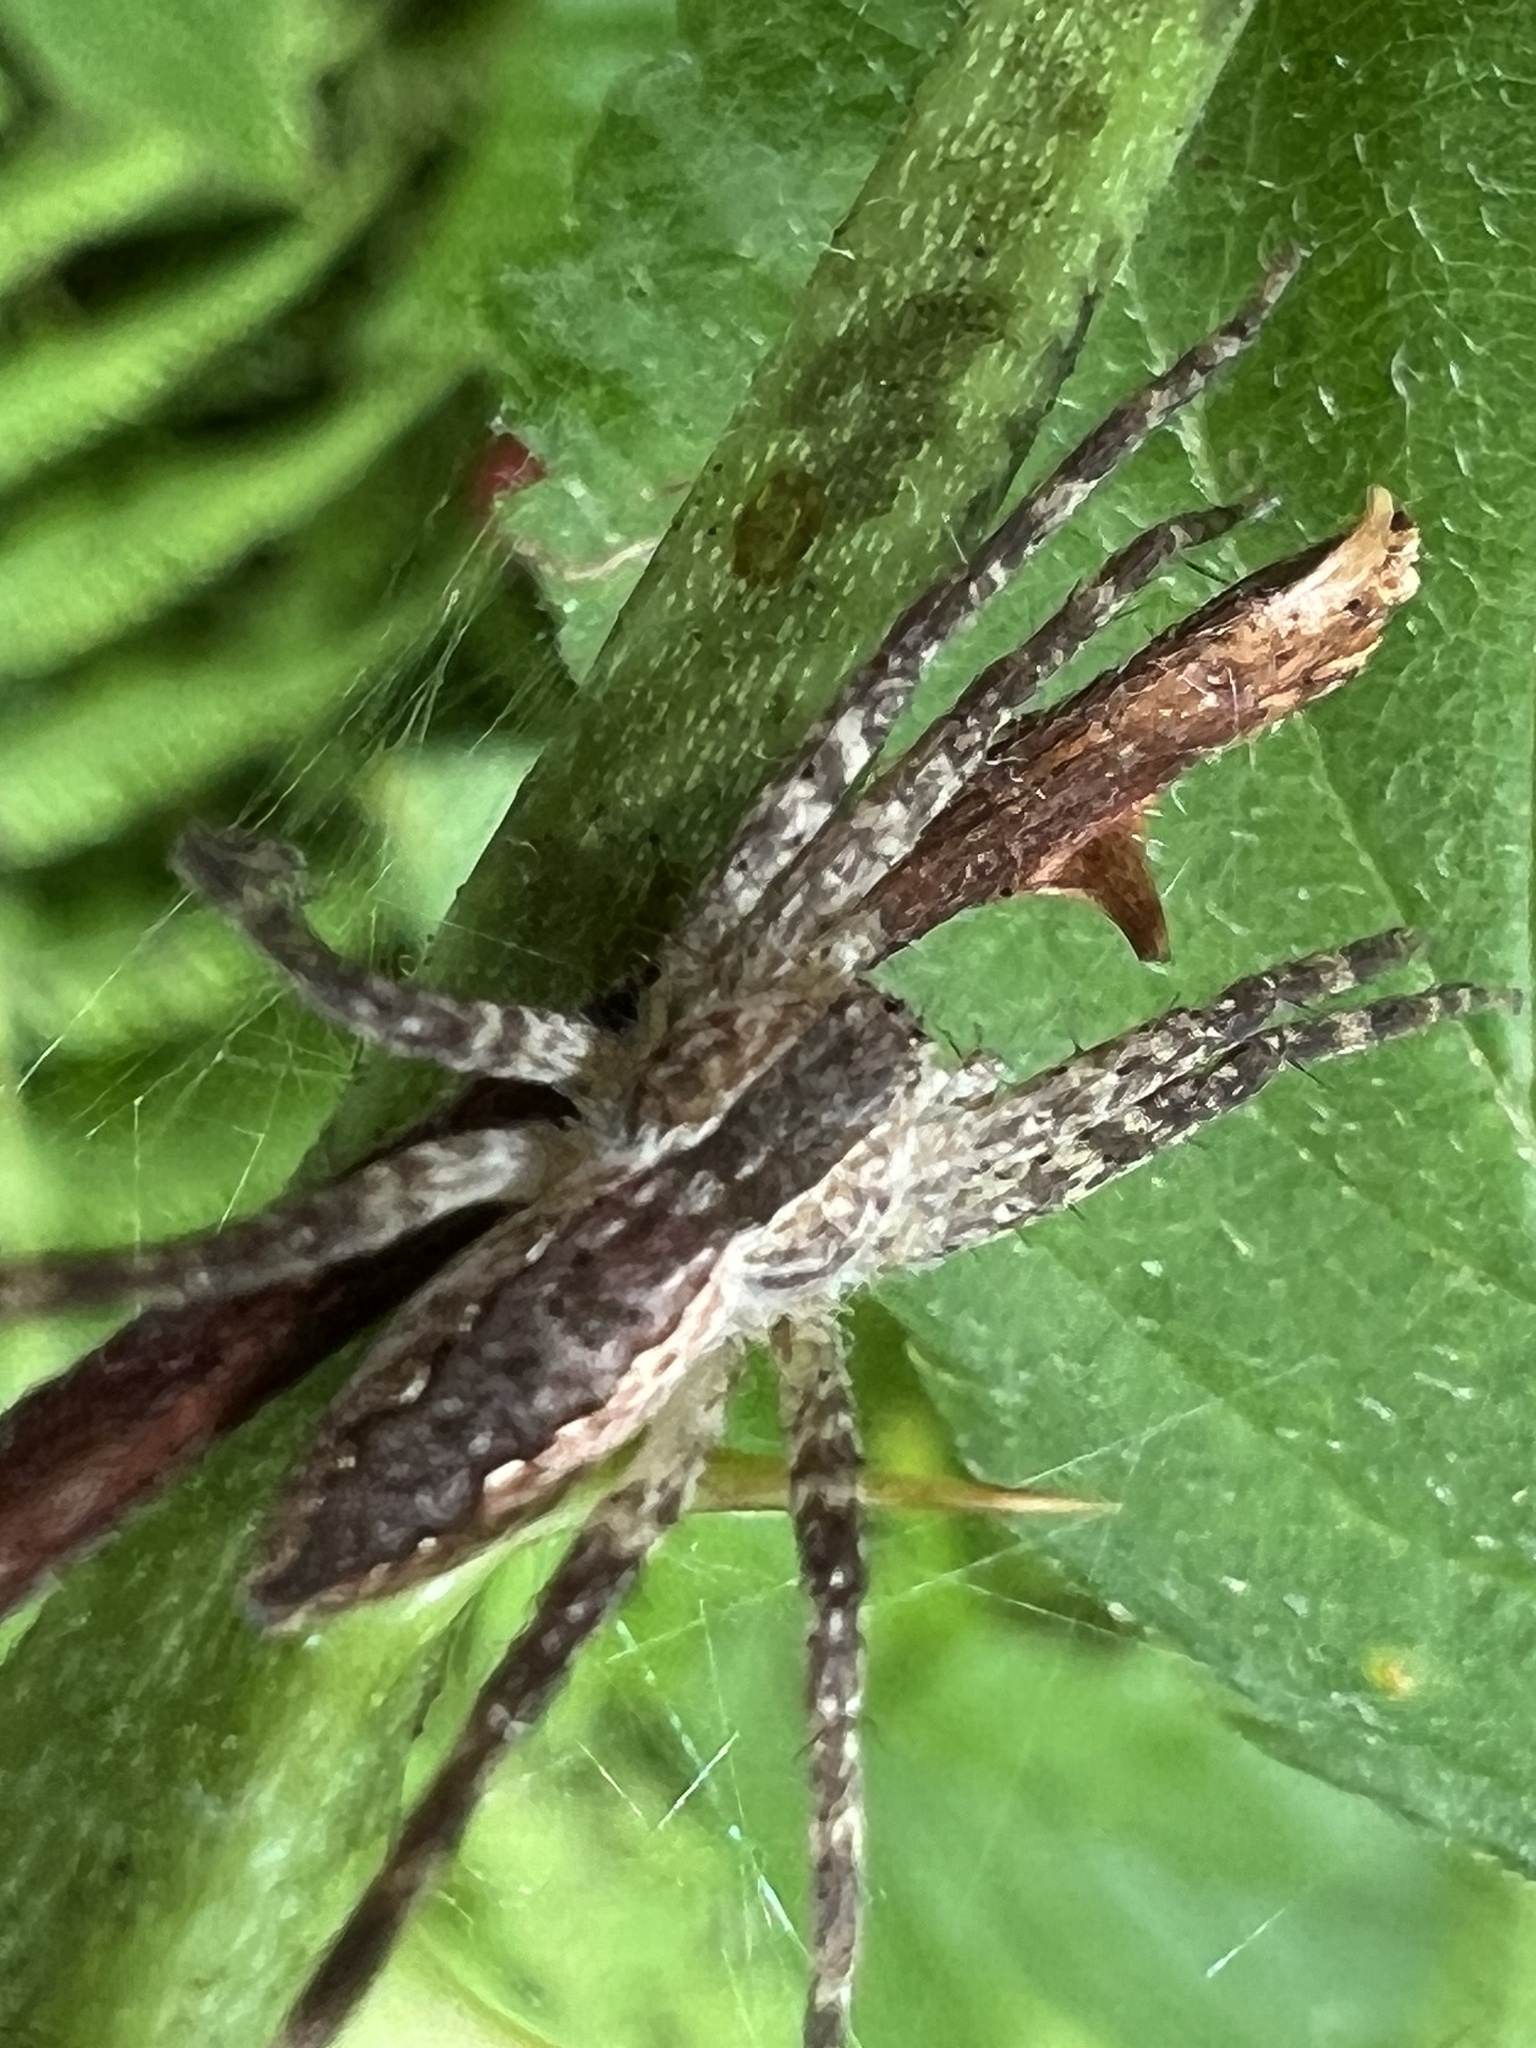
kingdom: Animalia
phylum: Arthropoda
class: Arachnida
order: Araneae
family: Pisauridae
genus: Pisaurina
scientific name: Pisaurina mira
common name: American nursery web spider
